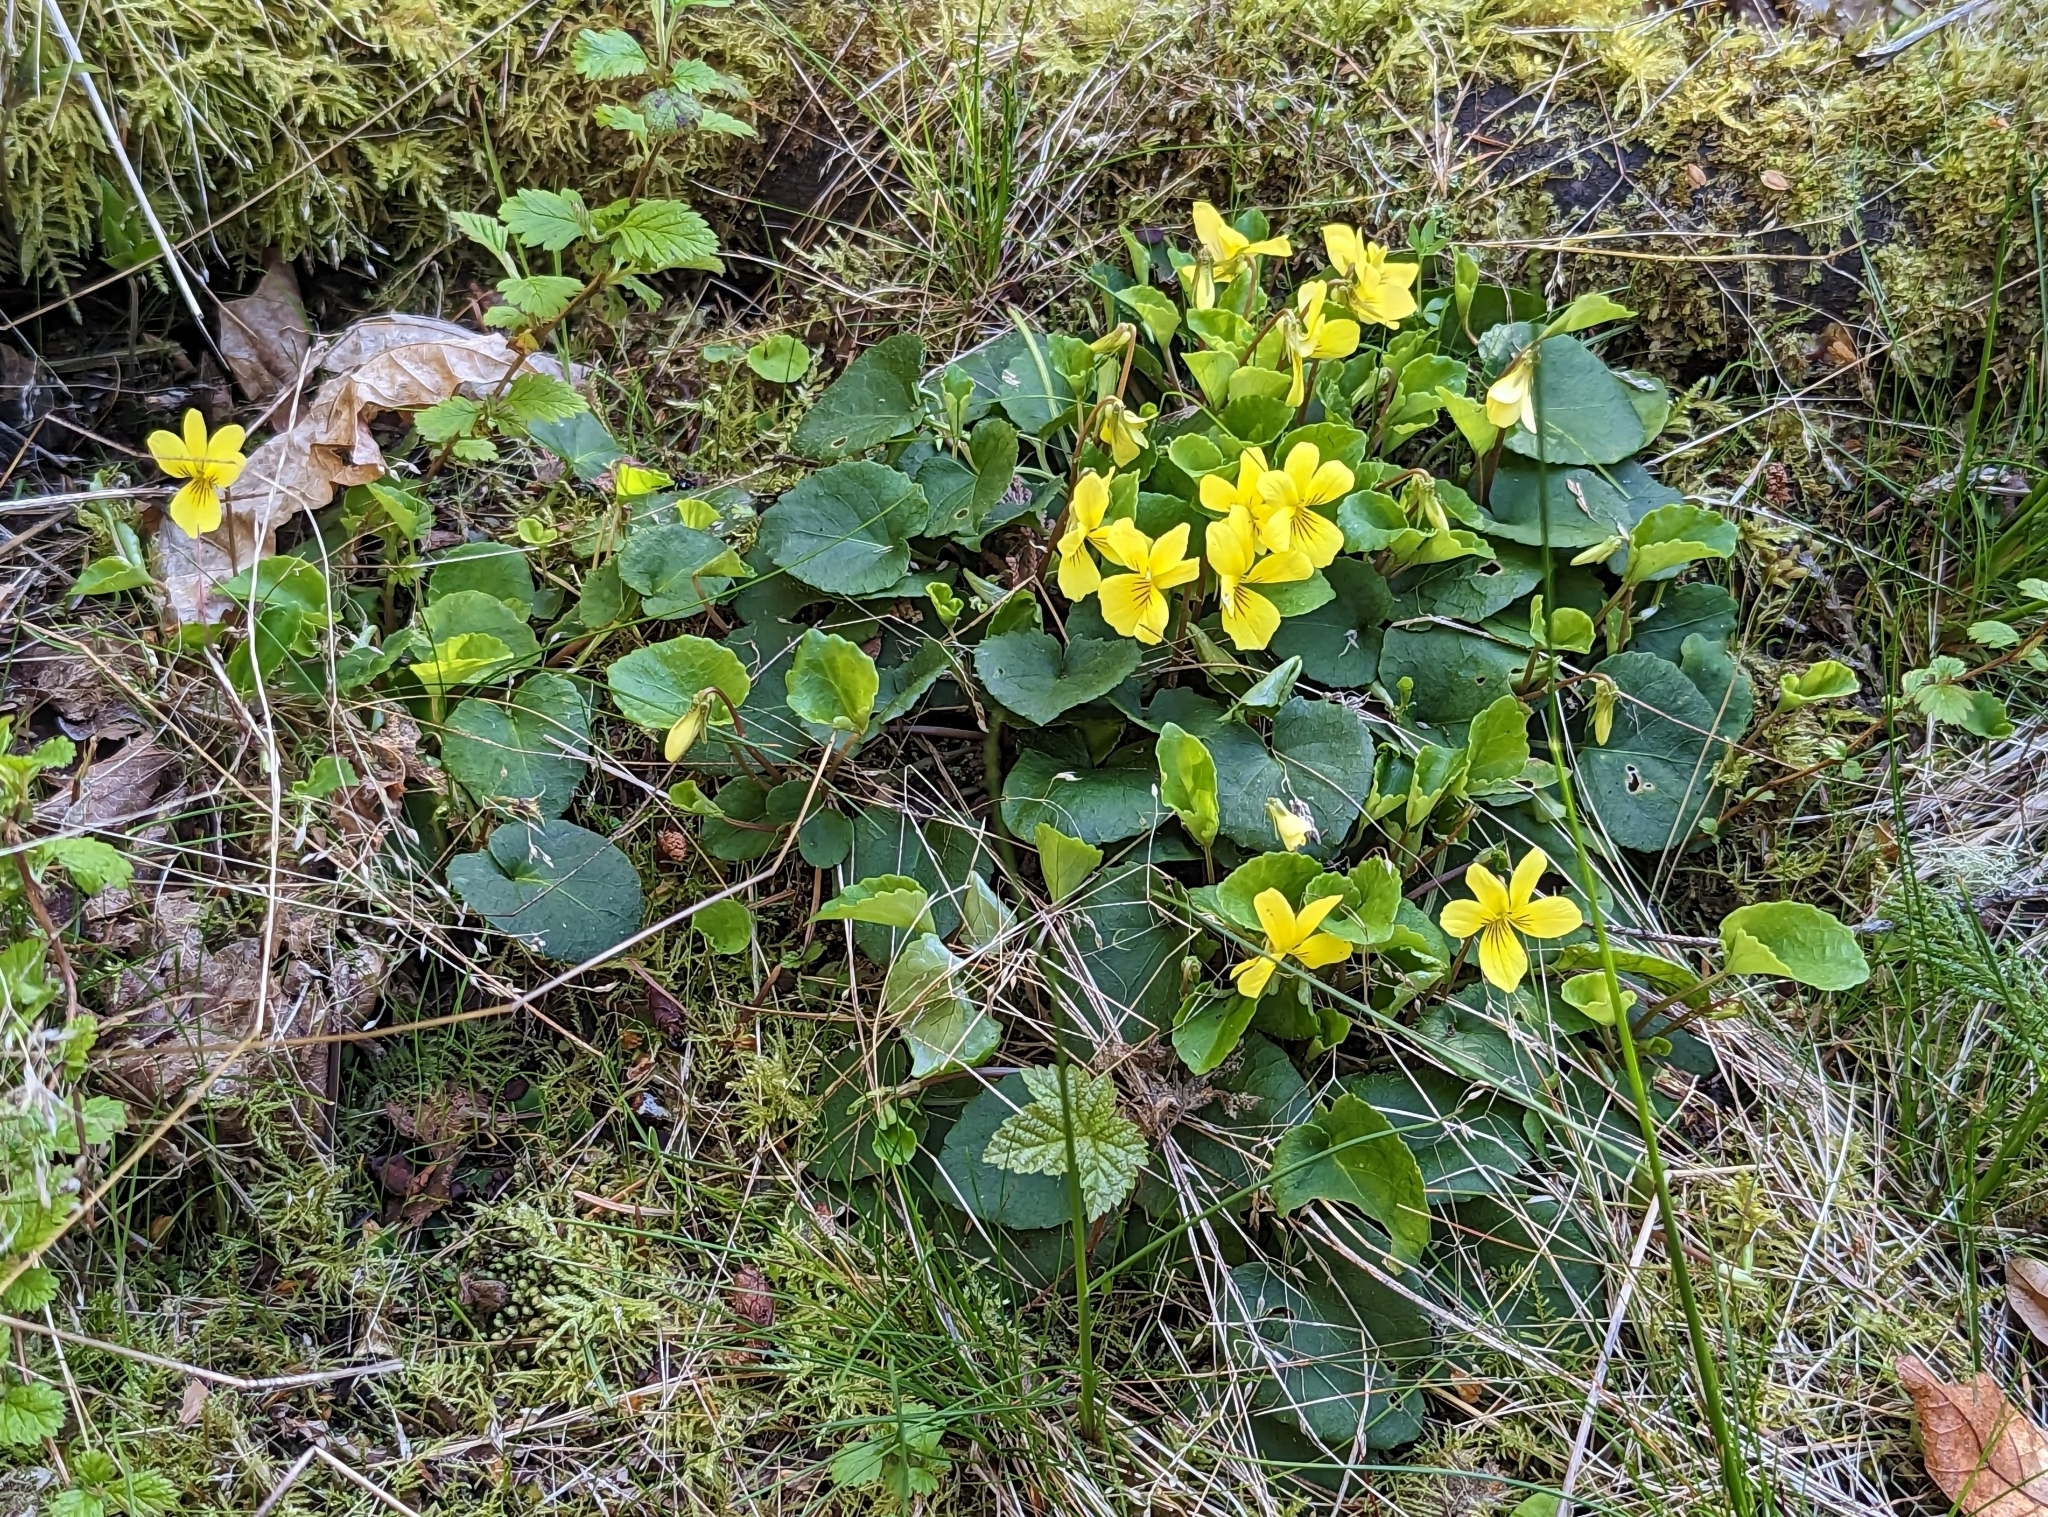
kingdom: Plantae
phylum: Tracheophyta
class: Magnoliopsida
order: Malpighiales
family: Violaceae
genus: Viola
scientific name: Viola sempervirens
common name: Evergreen violet
